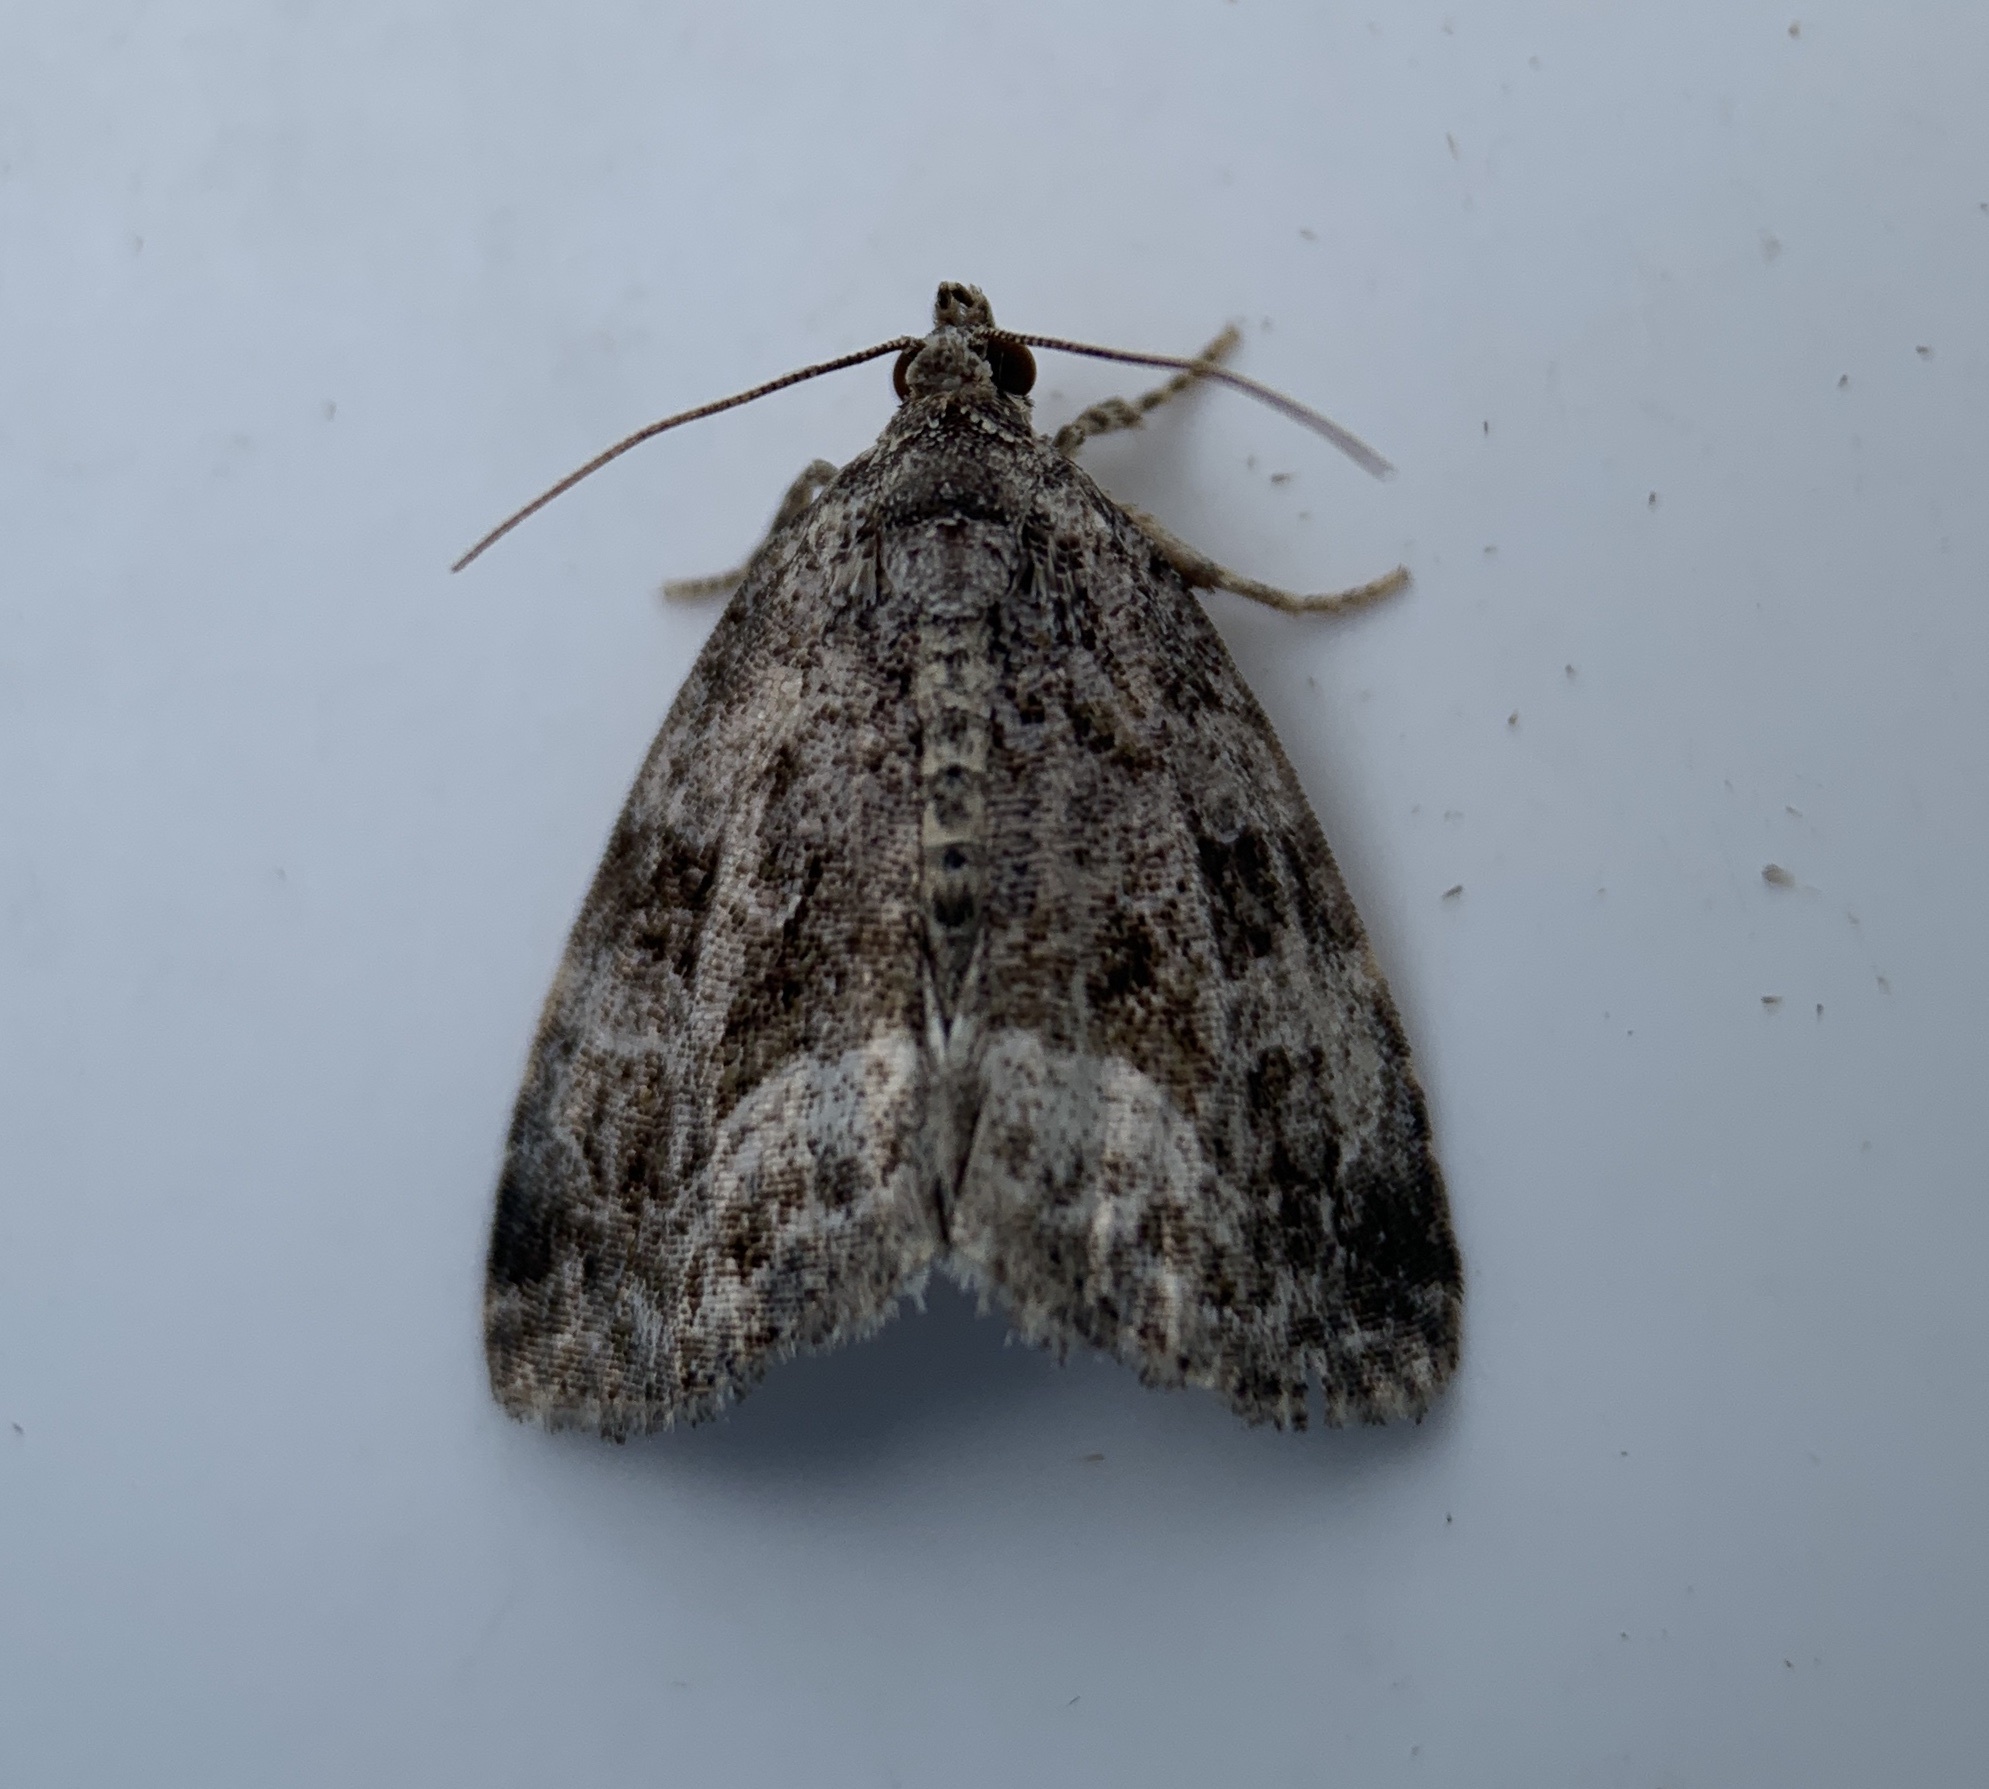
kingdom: Animalia
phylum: Arthropoda
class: Insecta
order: Lepidoptera
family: Noctuidae
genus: Protodeltote
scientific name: Protodeltote muscosula
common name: Large mossy glyph
